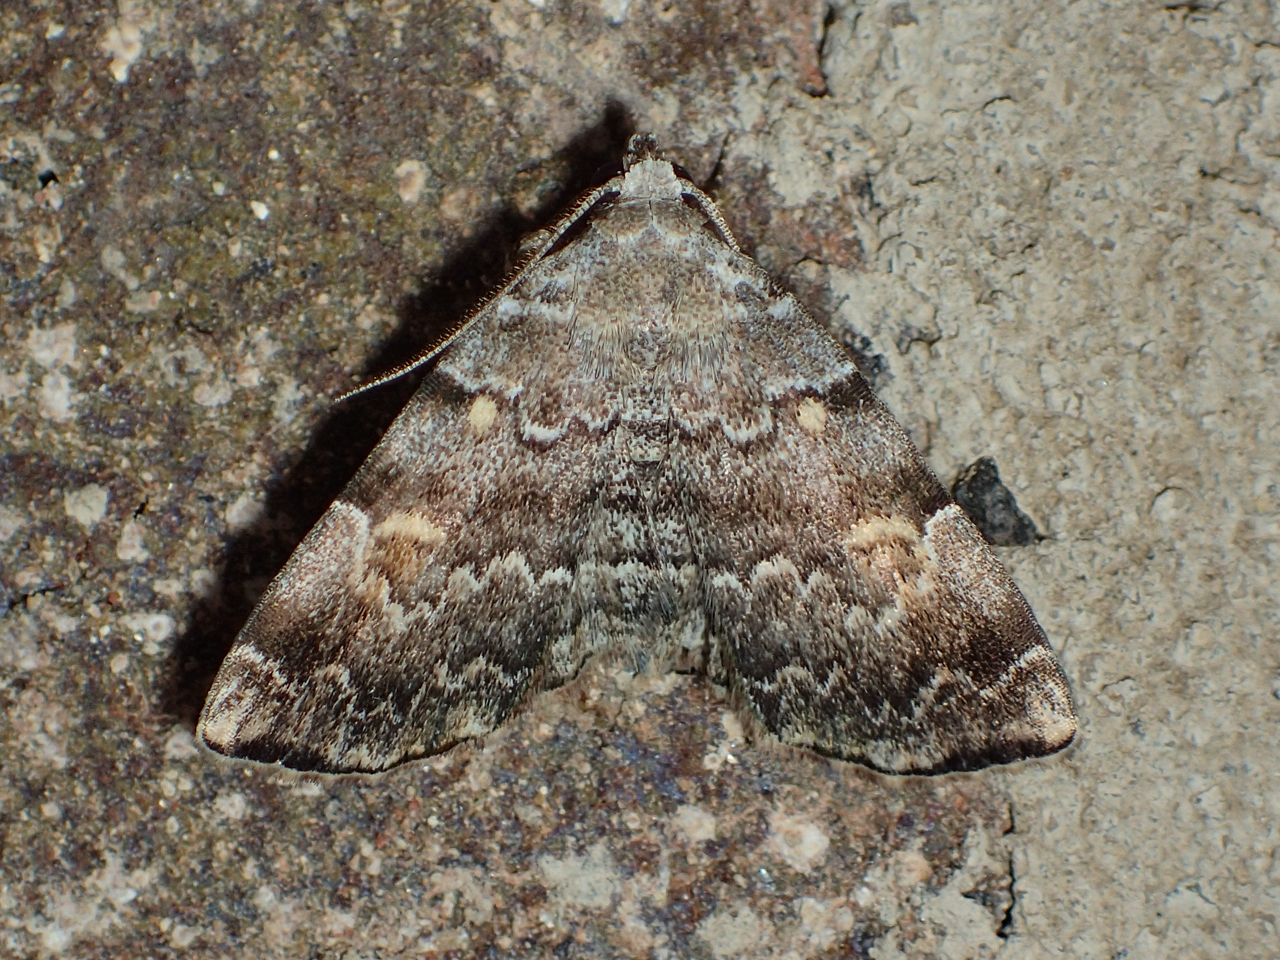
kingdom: Animalia
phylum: Arthropoda
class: Insecta
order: Lepidoptera
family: Erebidae
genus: Idia
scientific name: Idia americalis
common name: American idia moth
